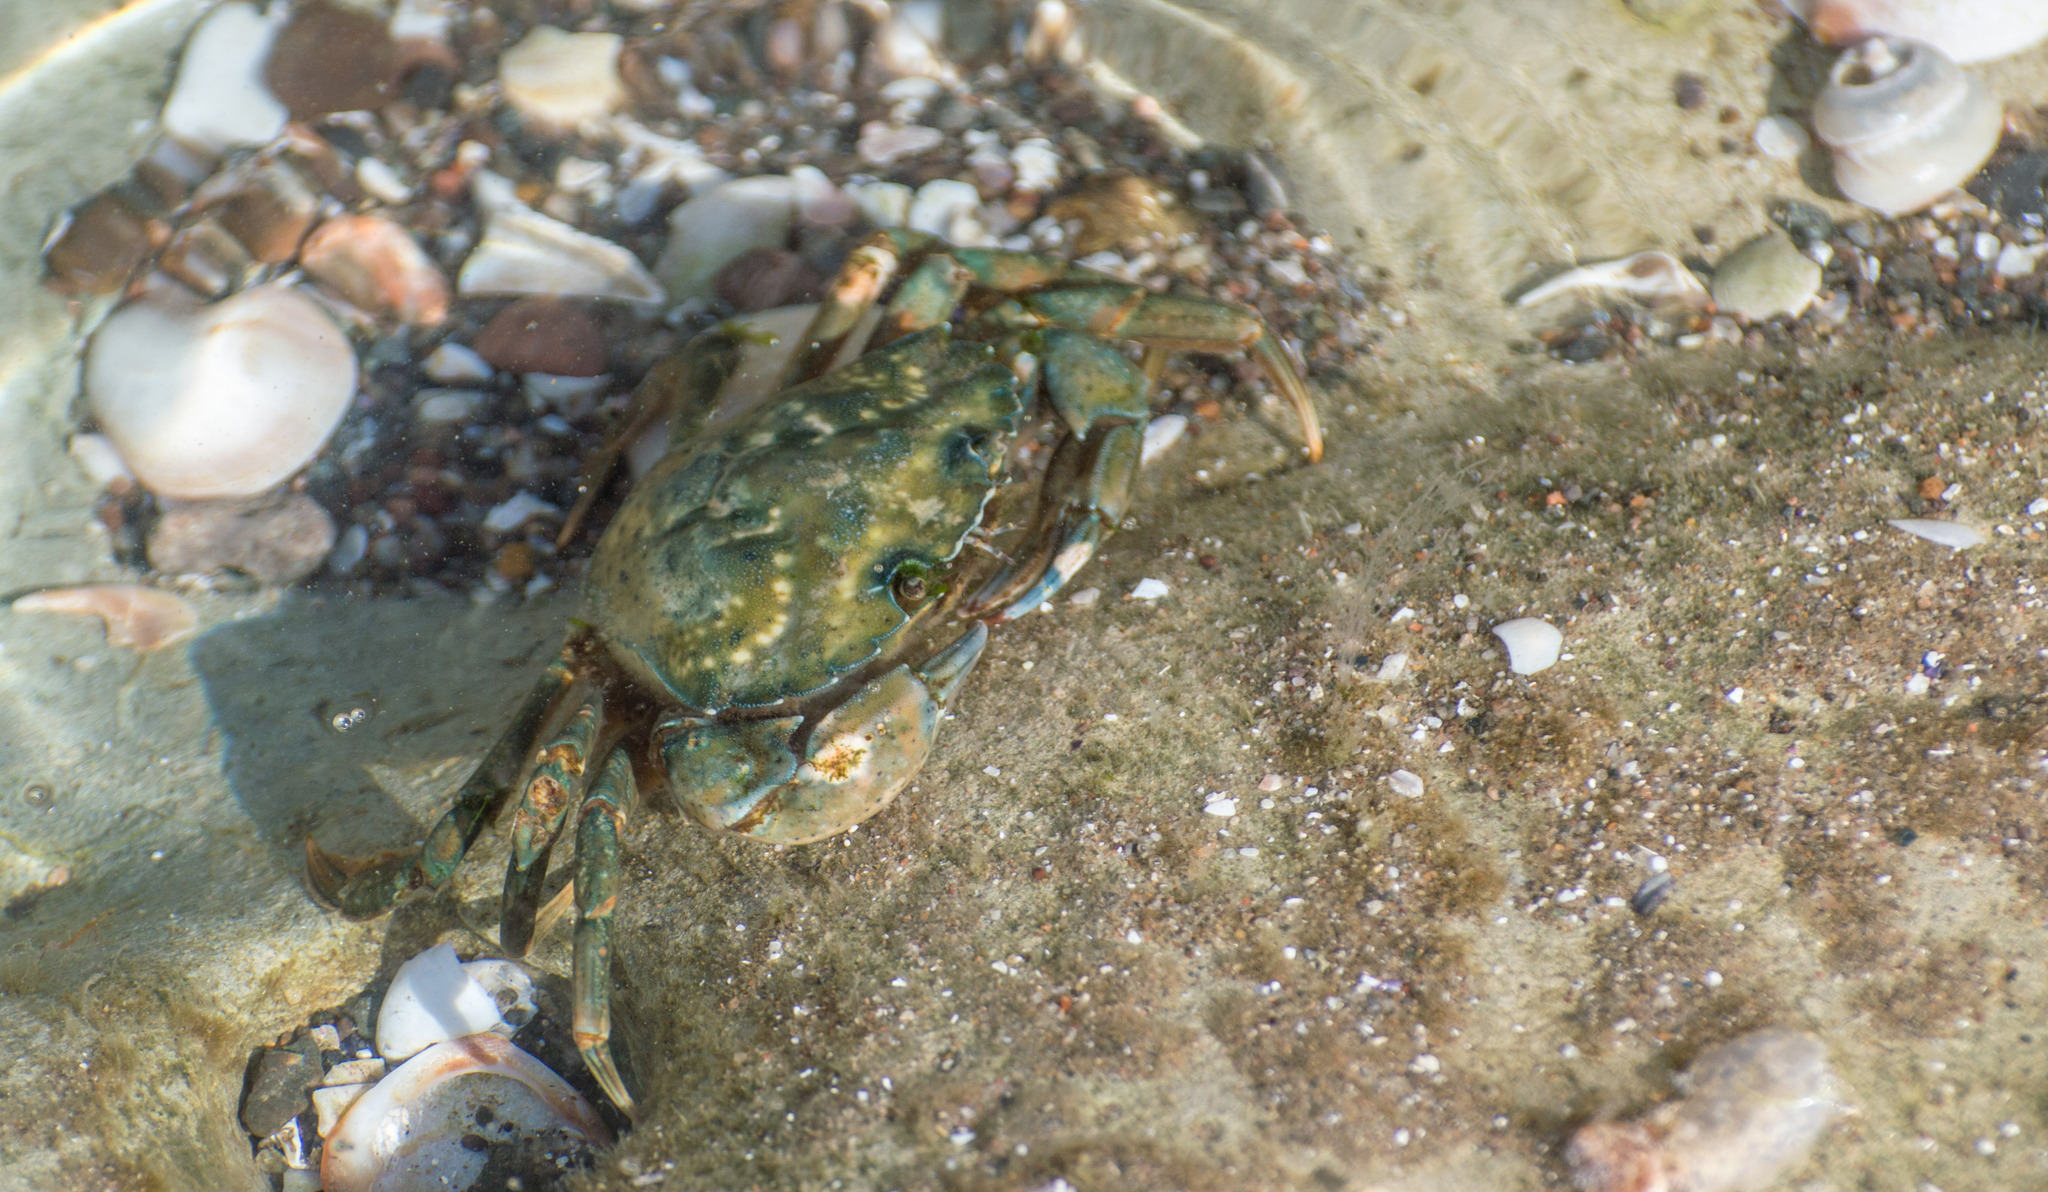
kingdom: Animalia
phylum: Arthropoda
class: Malacostraca
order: Decapoda
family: Carcinidae
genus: Carcinus
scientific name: Carcinus maenas
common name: European green crab
